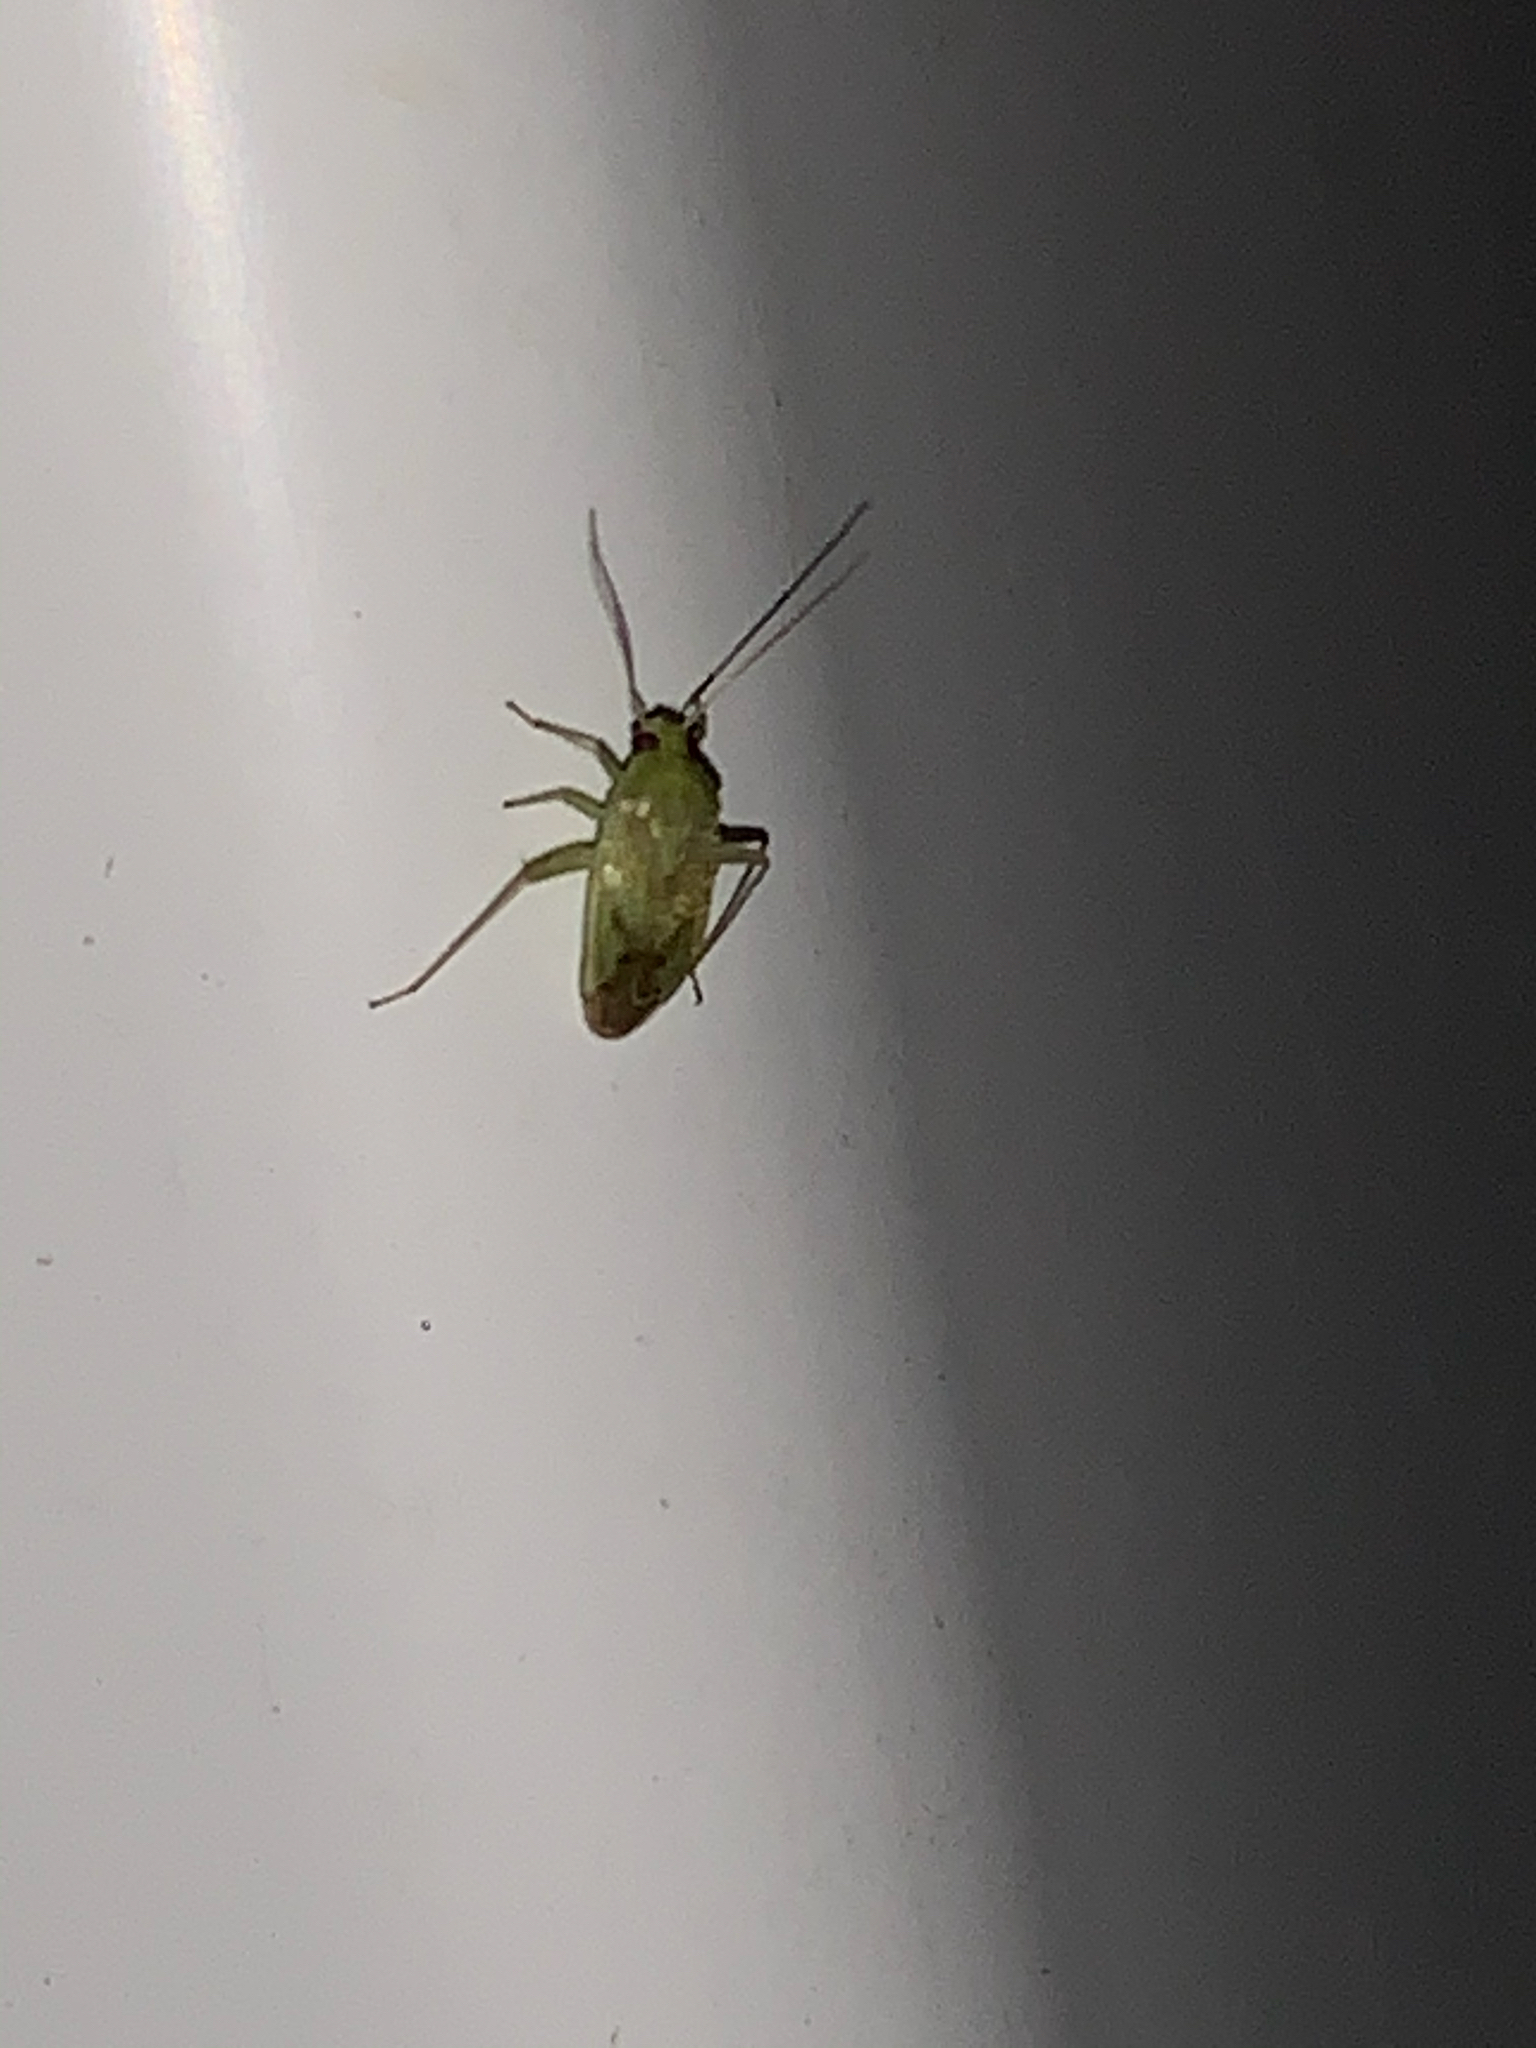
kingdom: Animalia
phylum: Arthropoda
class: Insecta
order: Hemiptera
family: Miridae
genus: Taylorilygus
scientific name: Taylorilygus apicalis
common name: Plant bug
